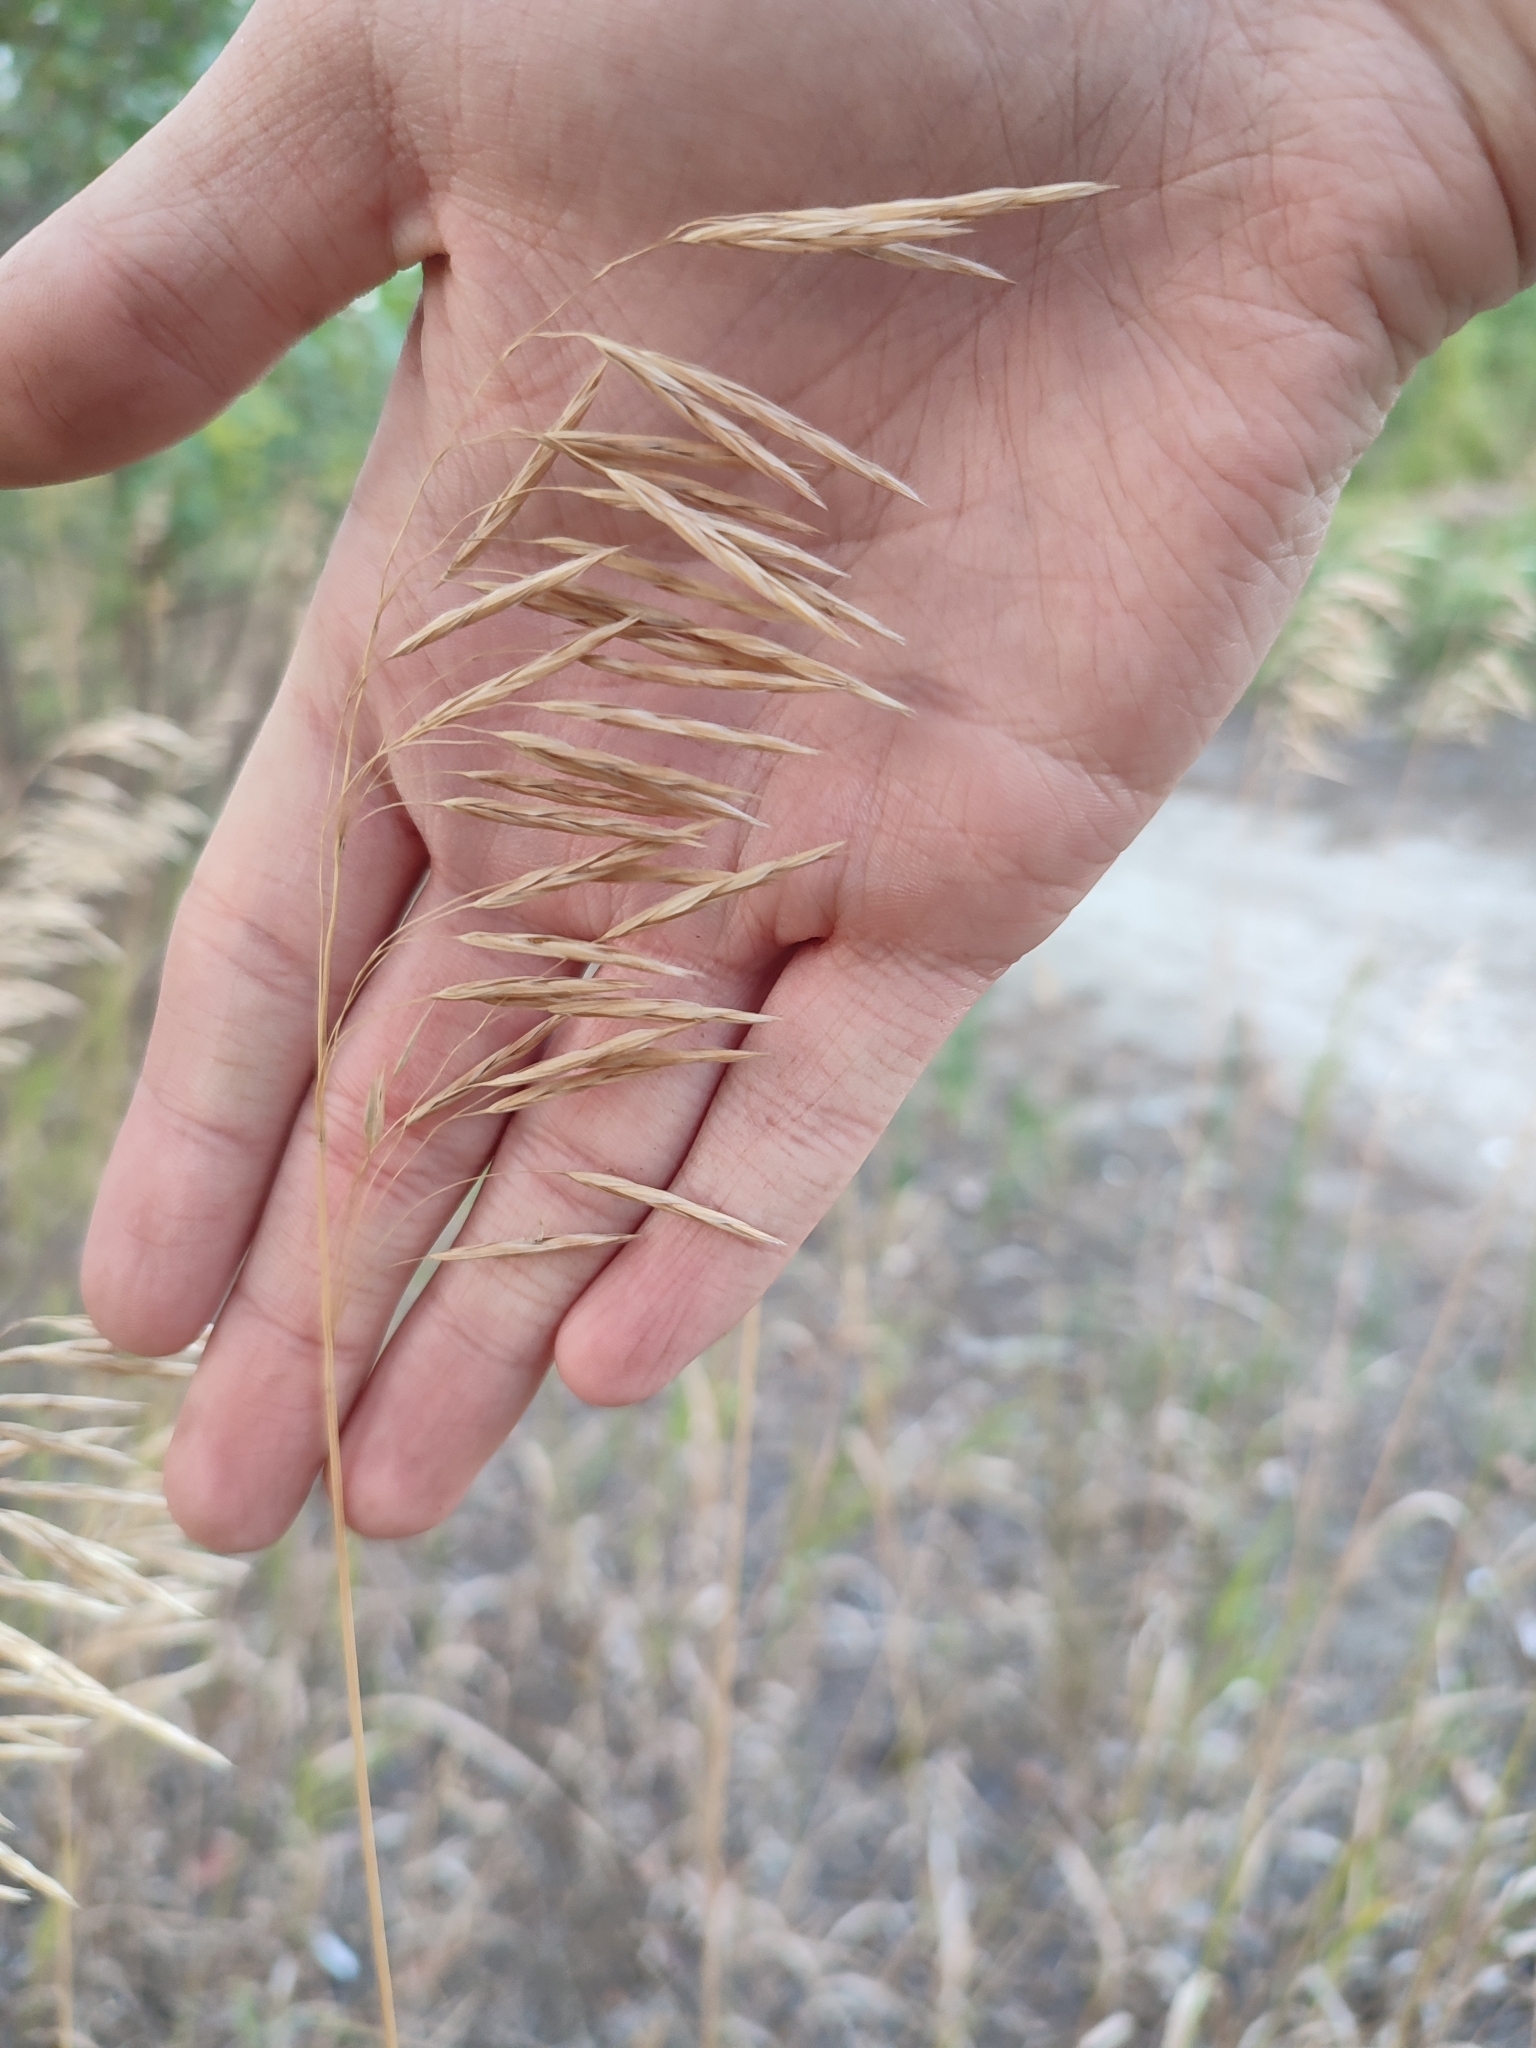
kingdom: Plantae
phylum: Tracheophyta
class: Liliopsida
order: Poales
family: Poaceae
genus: Bromus
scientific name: Bromus inermis
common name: Smooth brome
